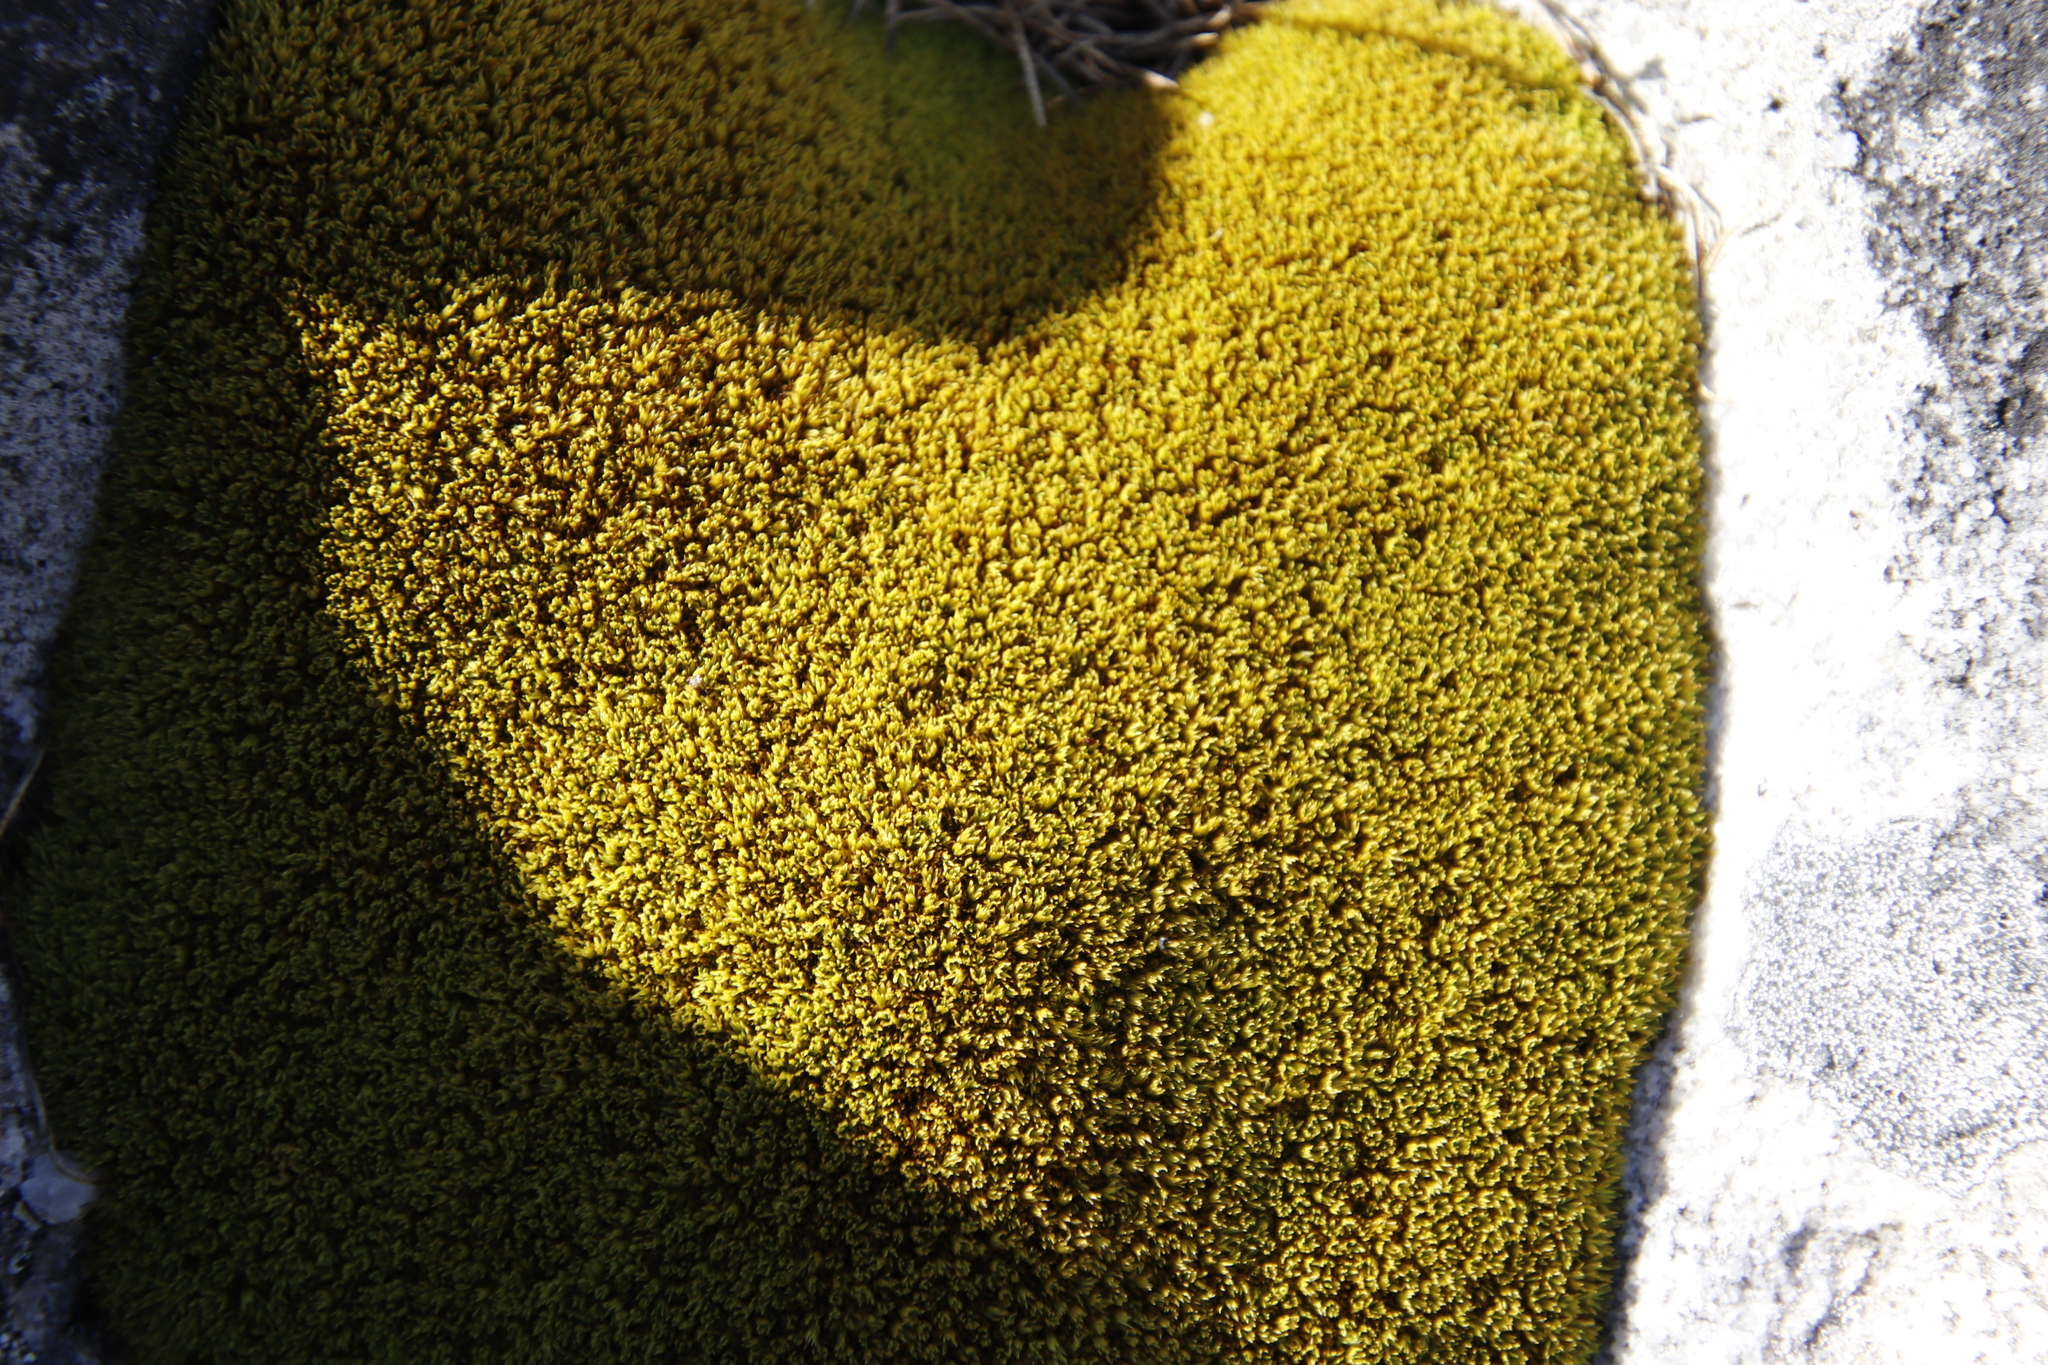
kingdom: Plantae
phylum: Bryophyta
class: Bryopsida
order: Dicranales
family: Hypodontiaceae
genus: Hypodontium
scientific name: Hypodontium pomiforme
